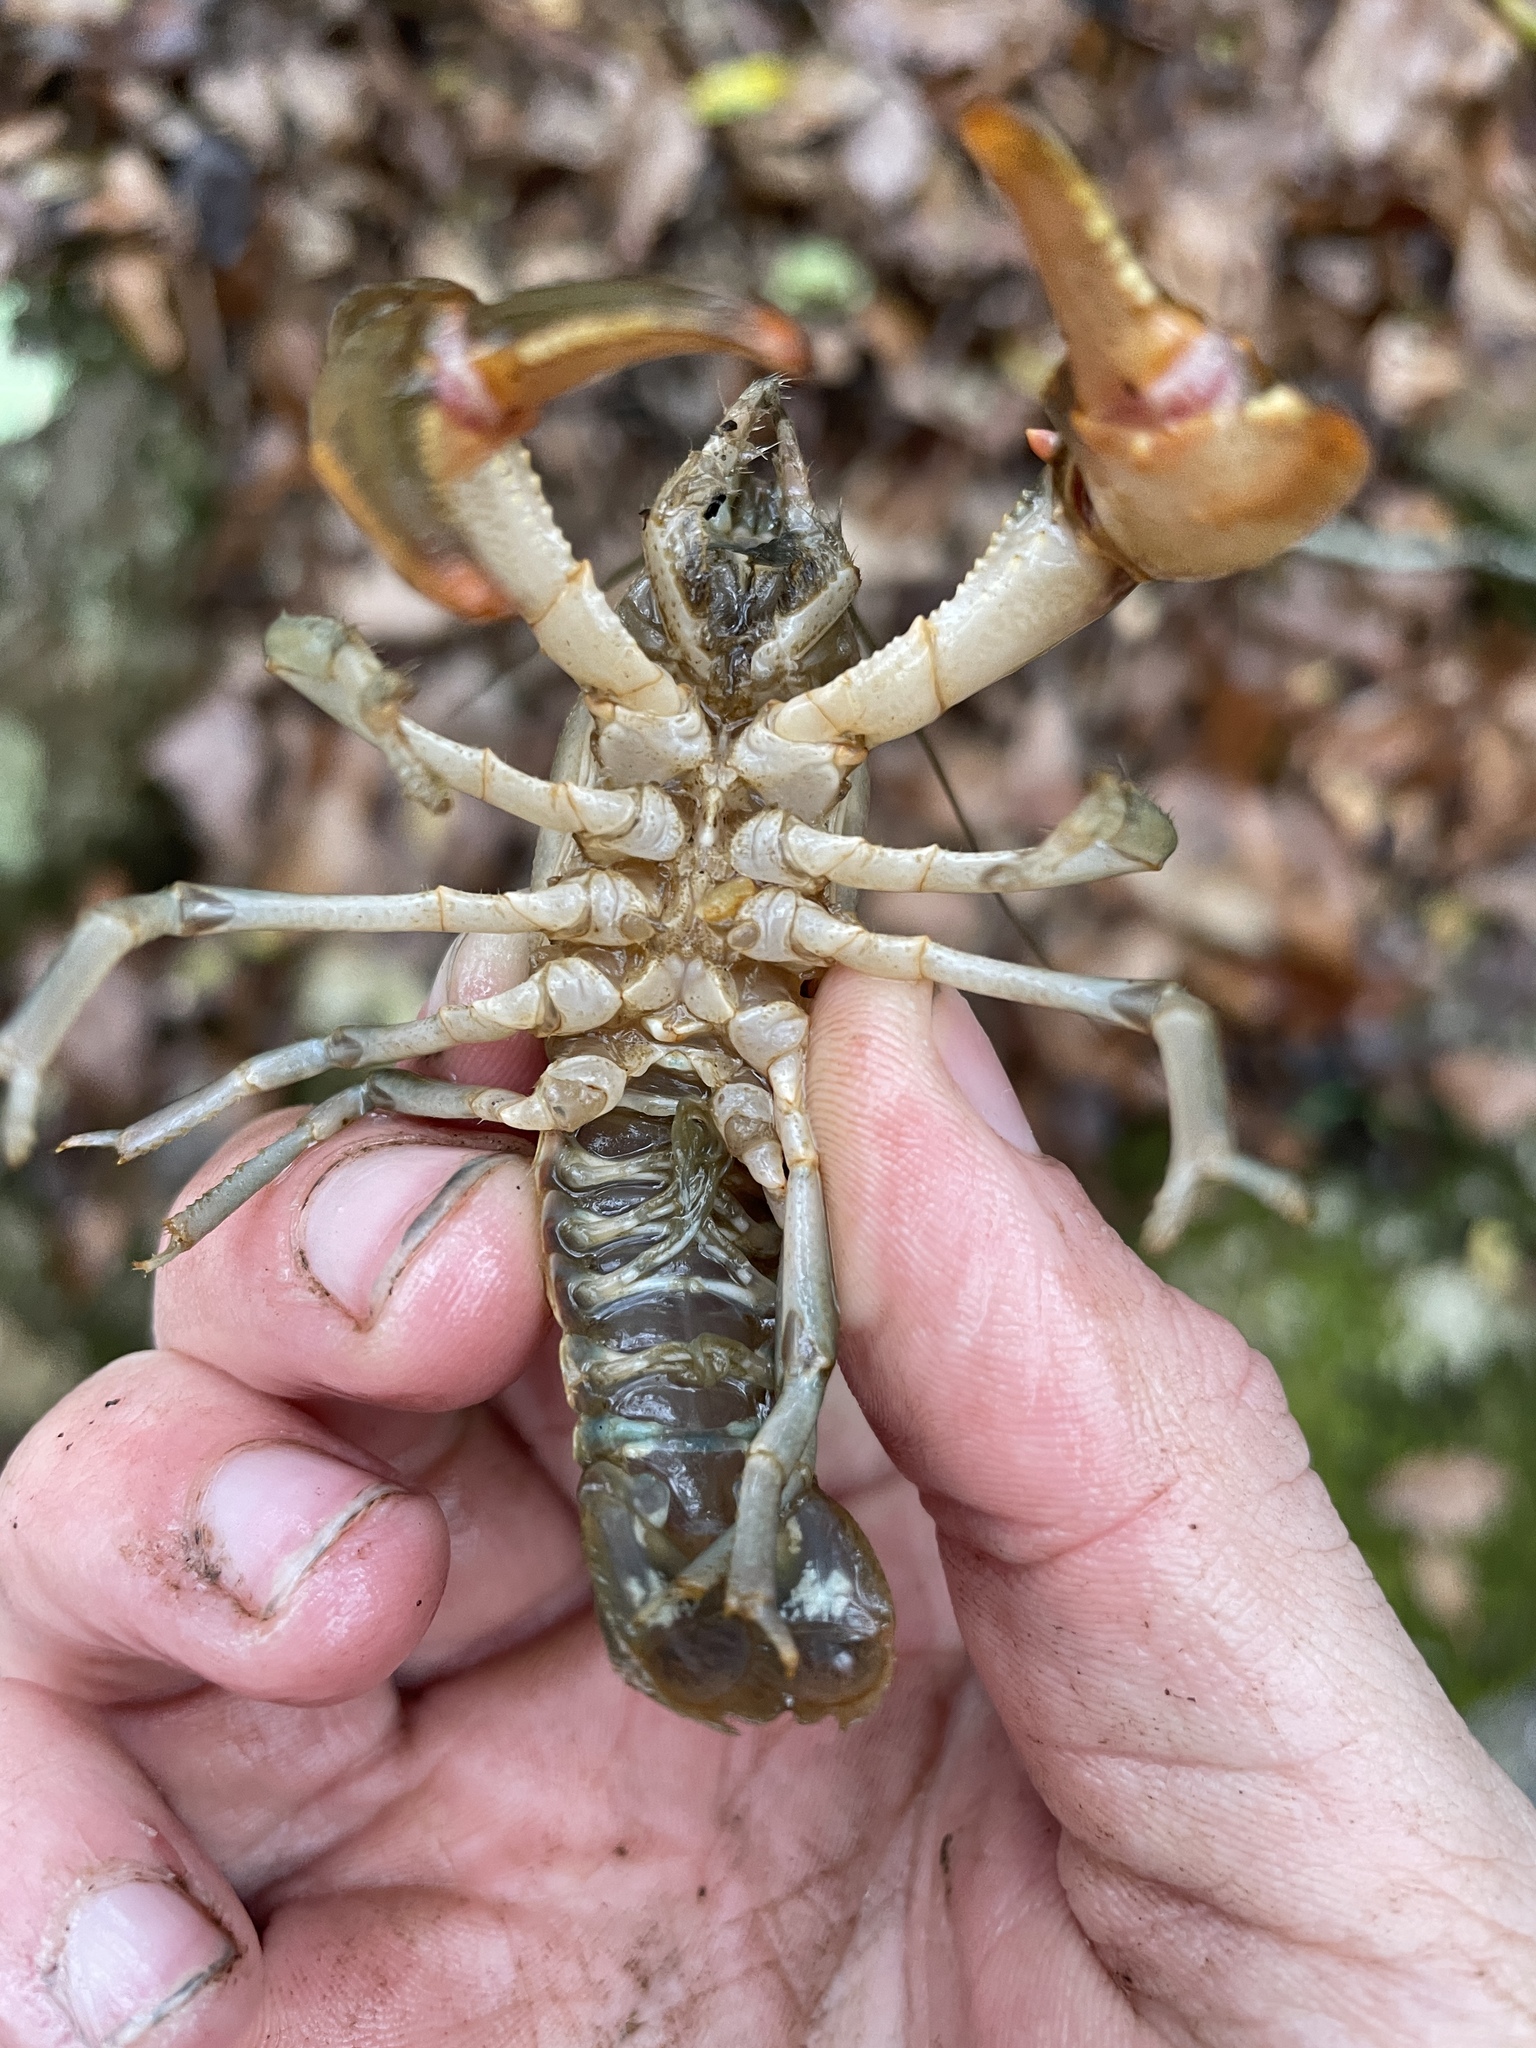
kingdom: Animalia
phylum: Arthropoda
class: Malacostraca
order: Decapoda
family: Cambaridae
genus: Cambarus
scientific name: Cambarus latimanus
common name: Variable crayfish
